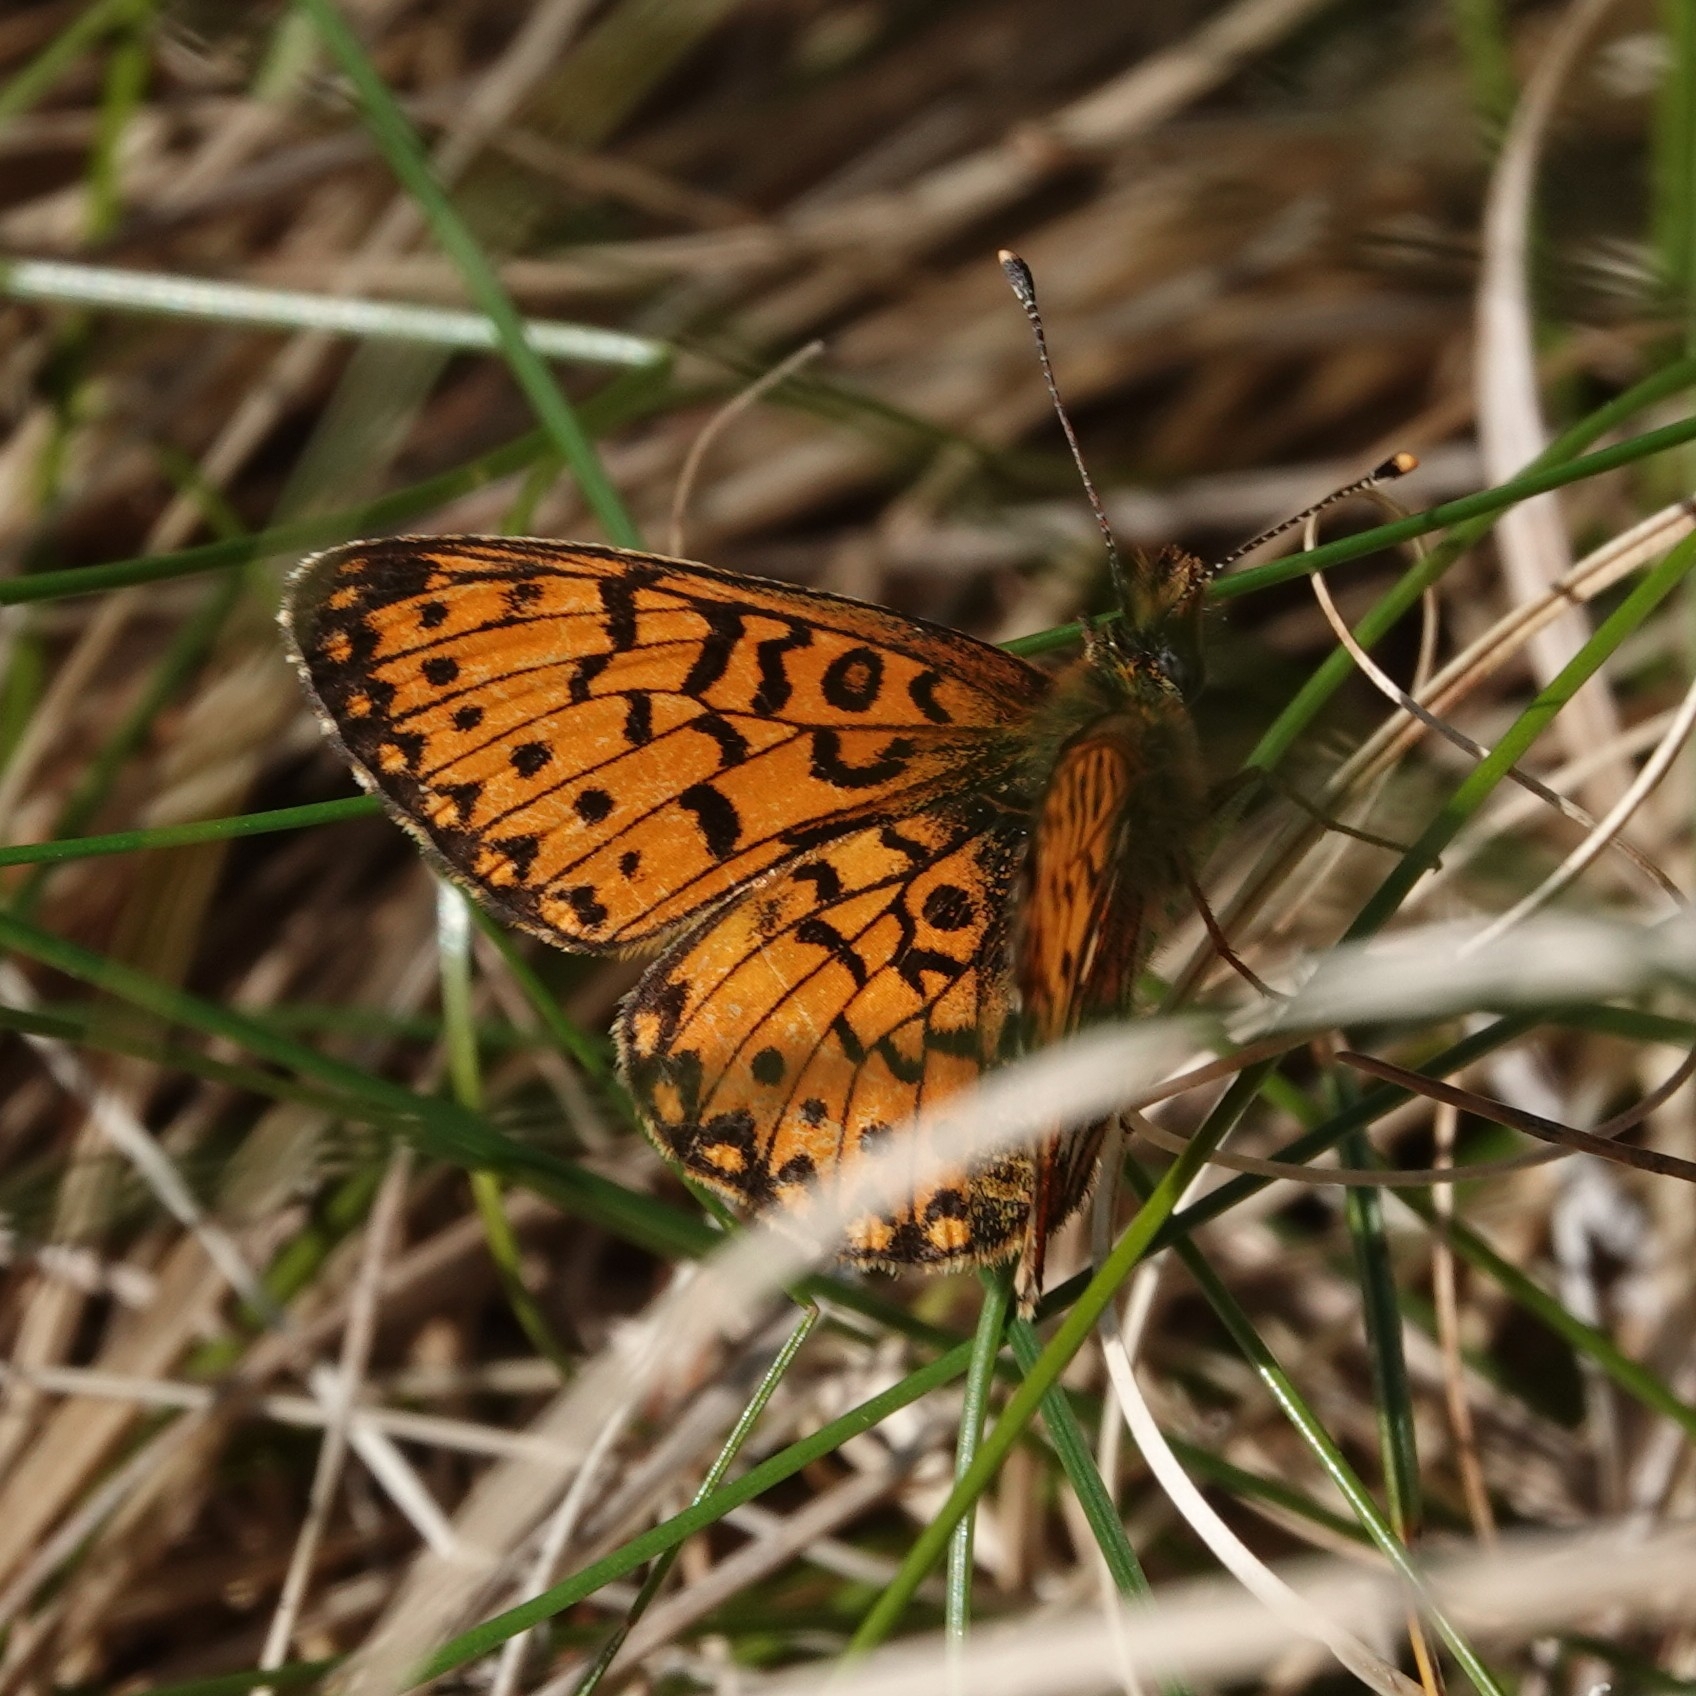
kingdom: Animalia
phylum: Arthropoda
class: Insecta
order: Lepidoptera
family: Nymphalidae
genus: Boloria
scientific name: Boloria selene
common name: Small pearl-bordered fritillary
